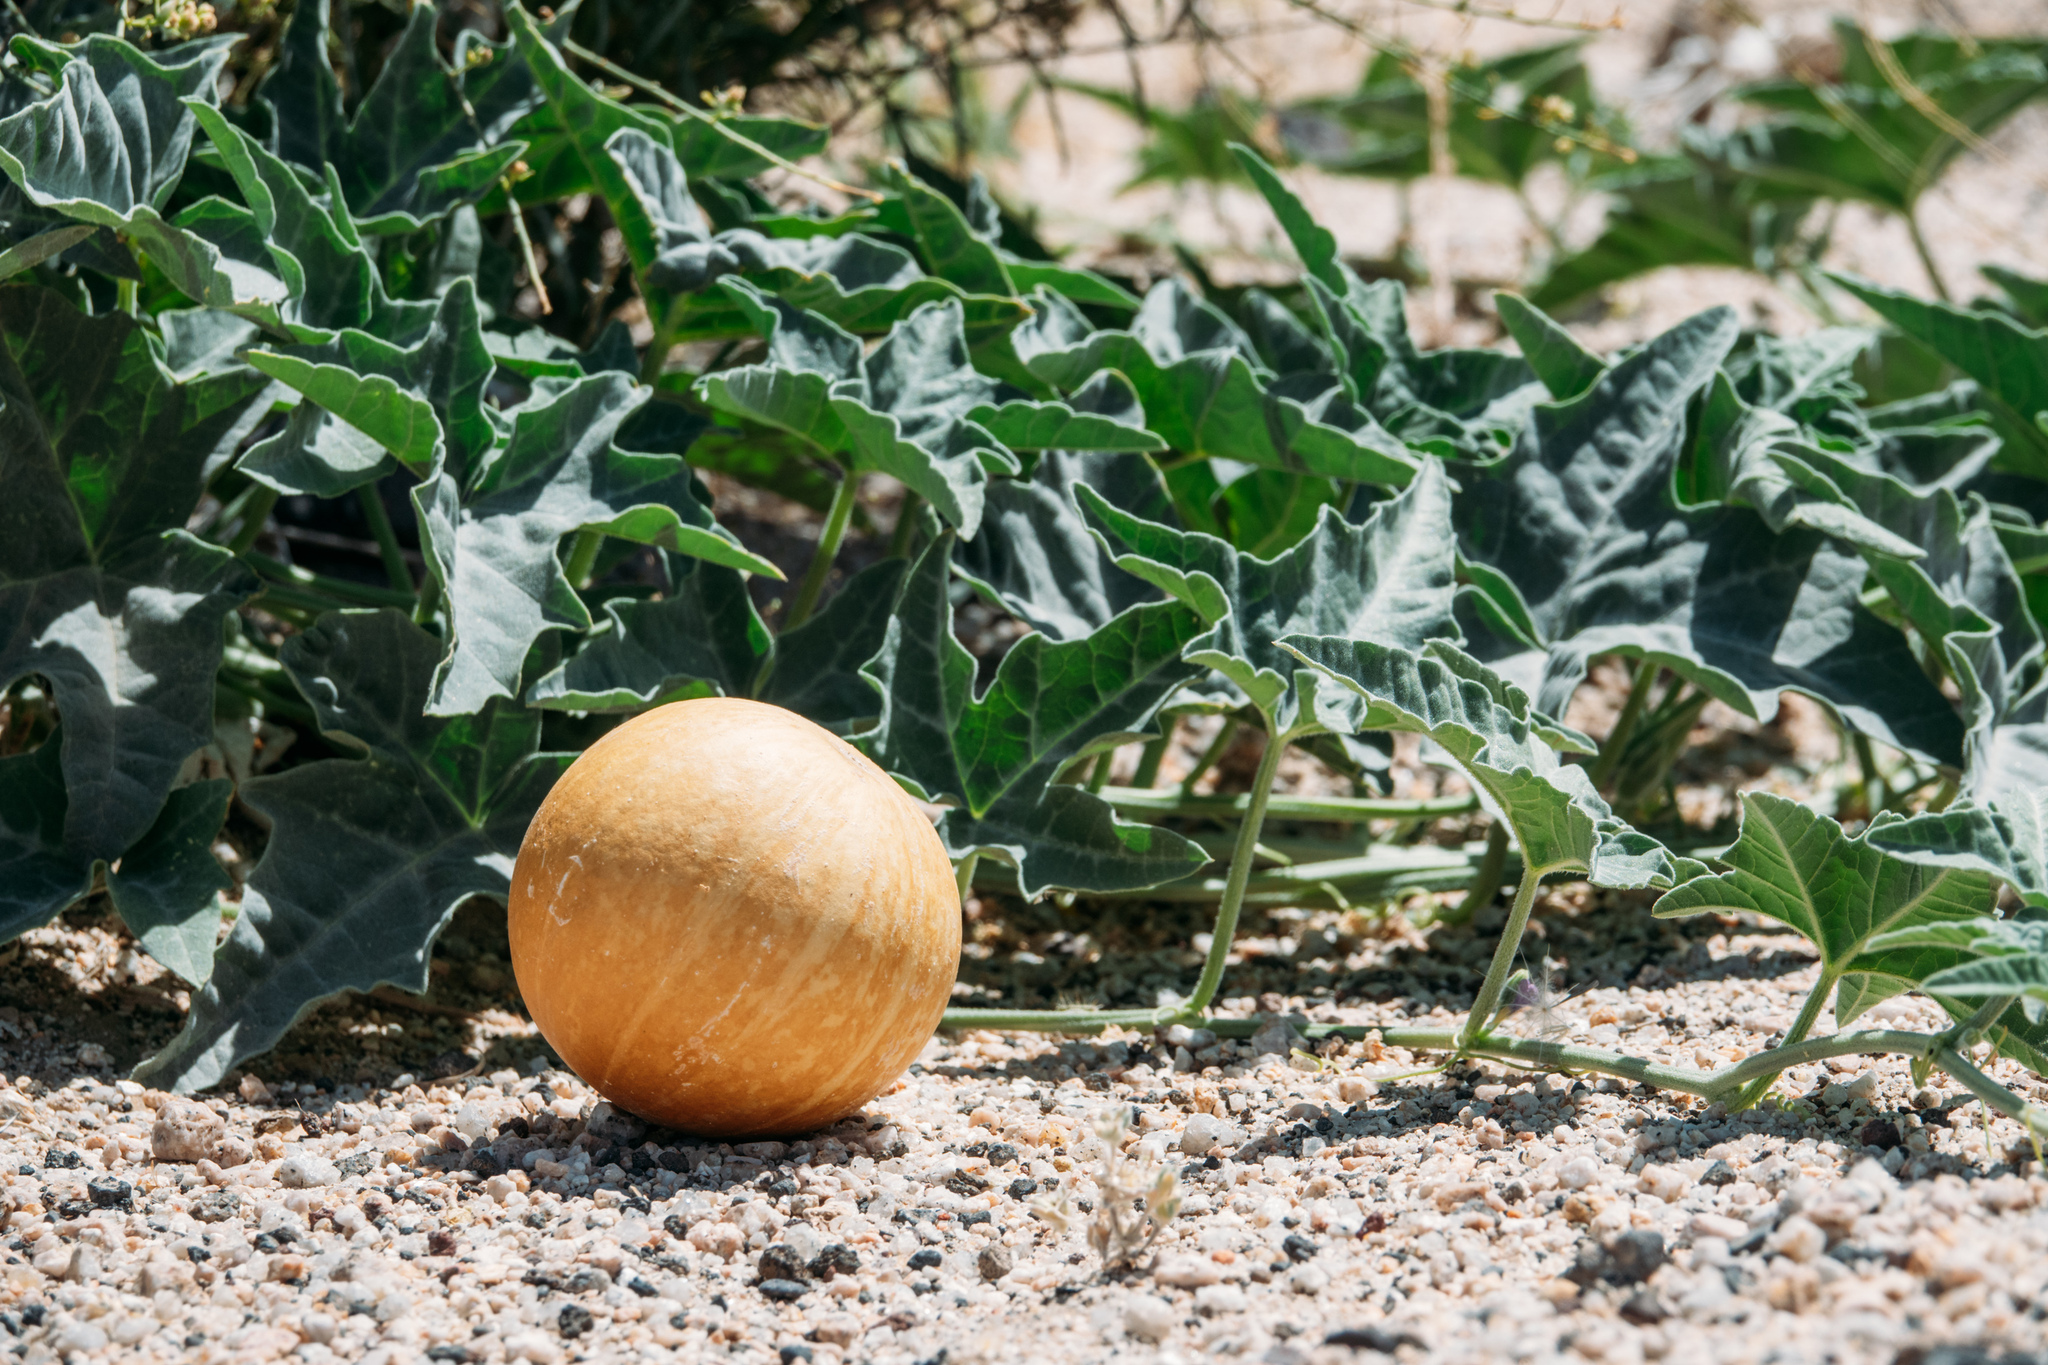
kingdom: Plantae
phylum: Tracheophyta
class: Magnoliopsida
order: Cucurbitales
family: Cucurbitaceae
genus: Cucurbita
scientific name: Cucurbita palmata
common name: Coyote-melon
